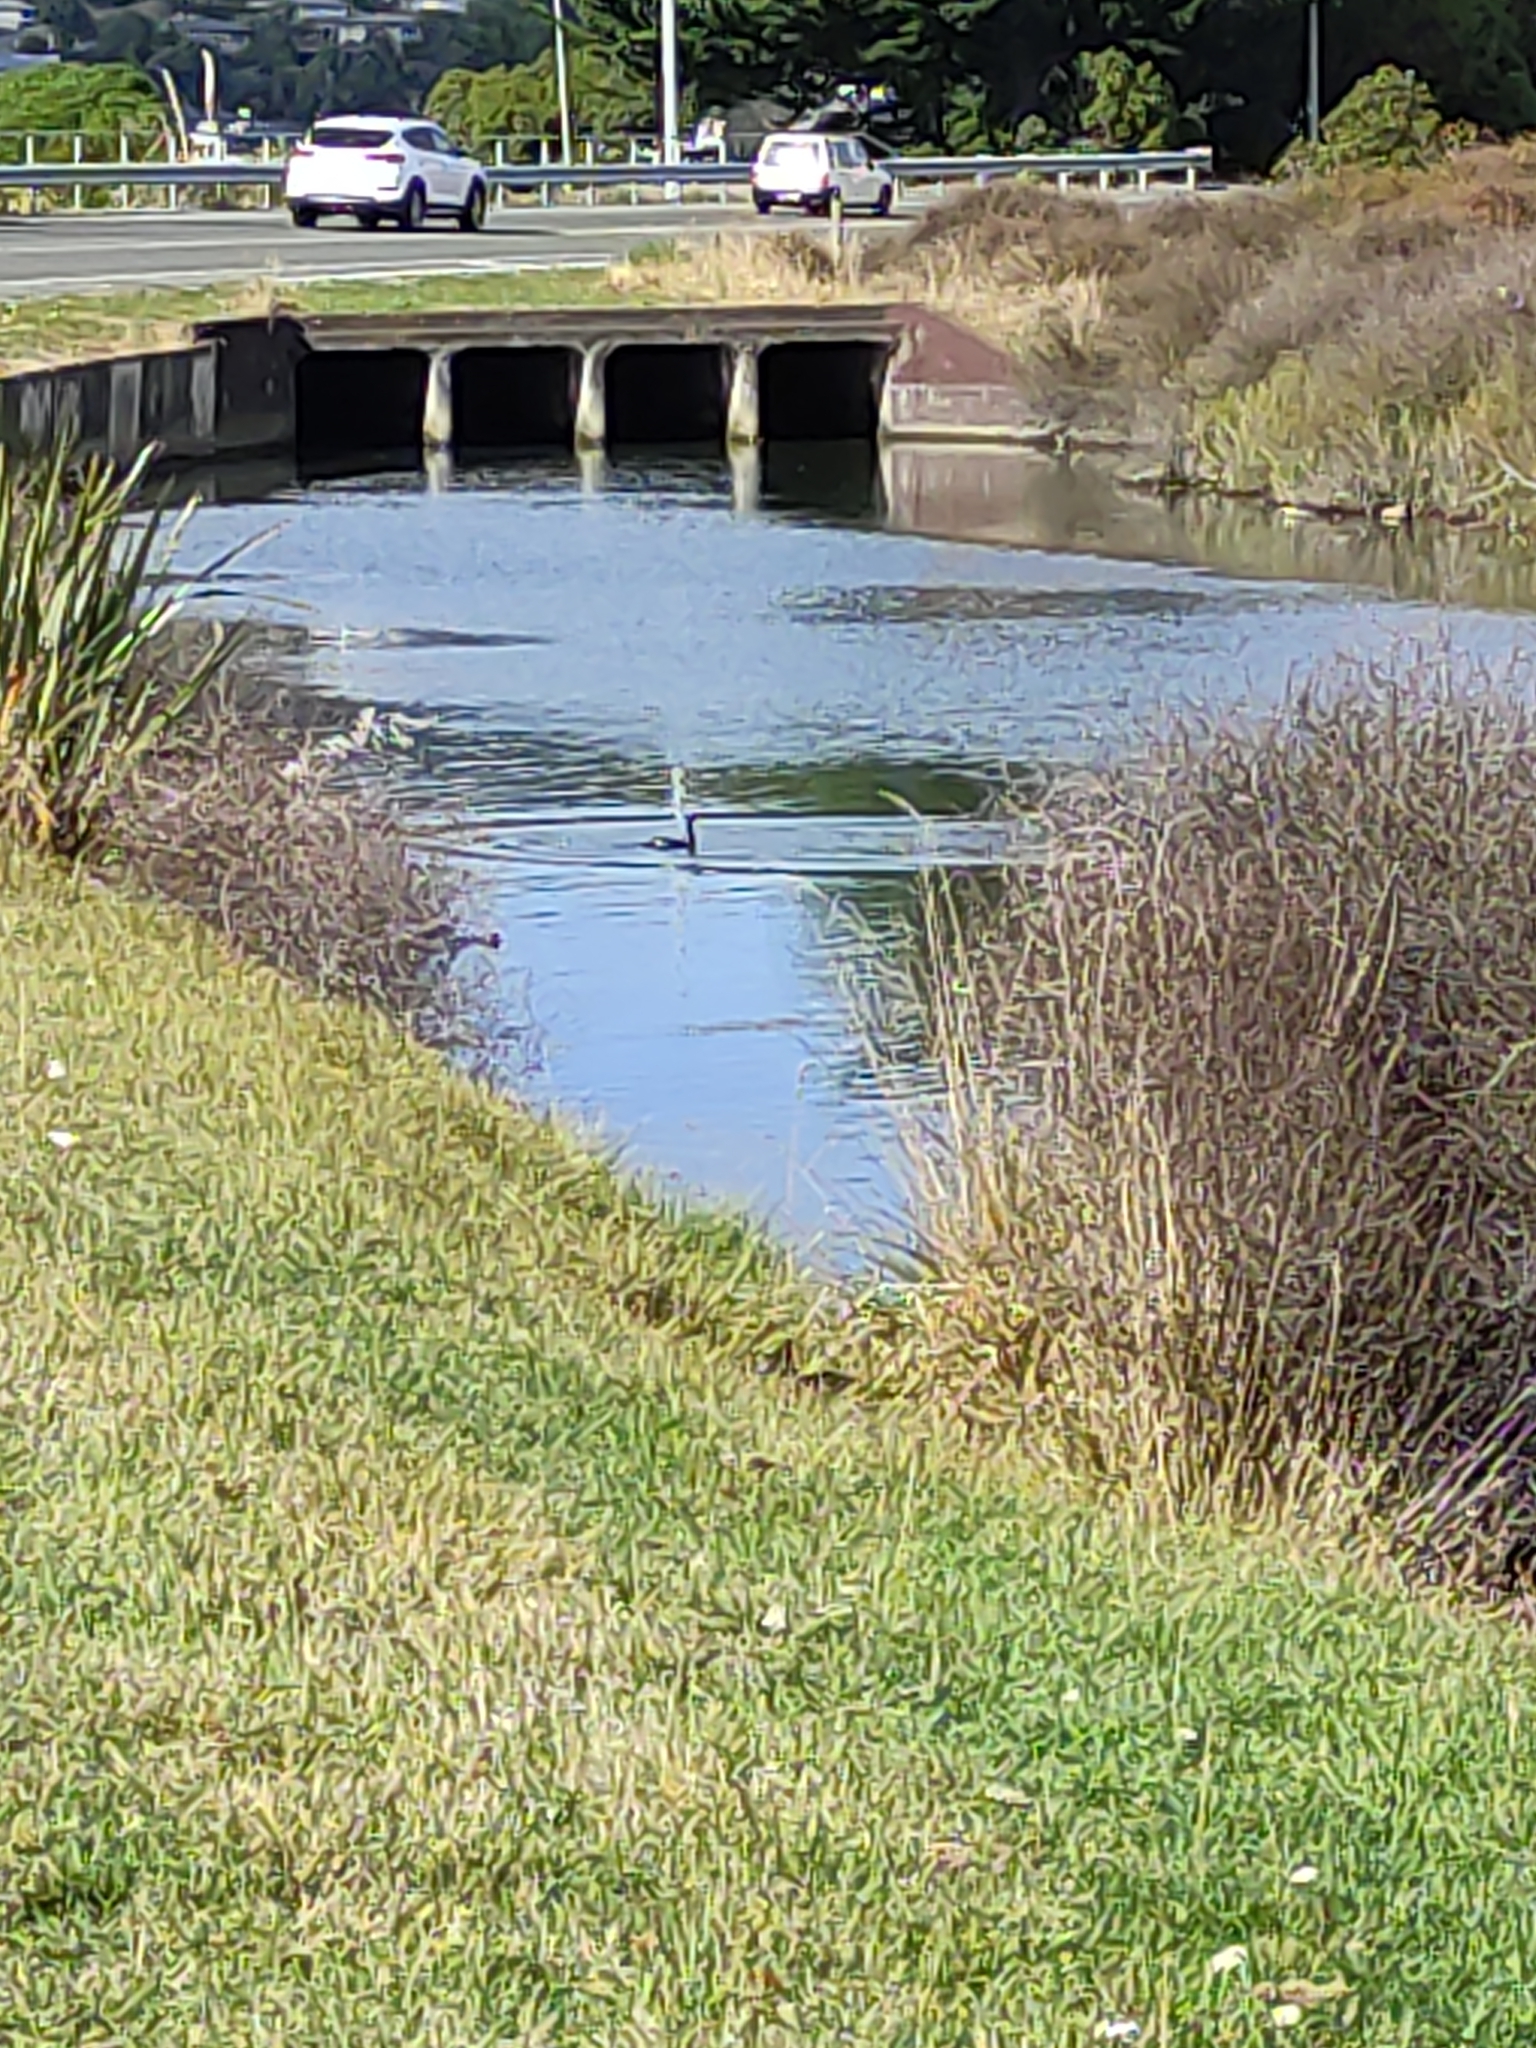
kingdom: Animalia
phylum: Chordata
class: Aves
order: Suliformes
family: Phalacrocoracidae
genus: Microcarbo
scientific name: Microcarbo melanoleucos
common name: Little pied cormorant
